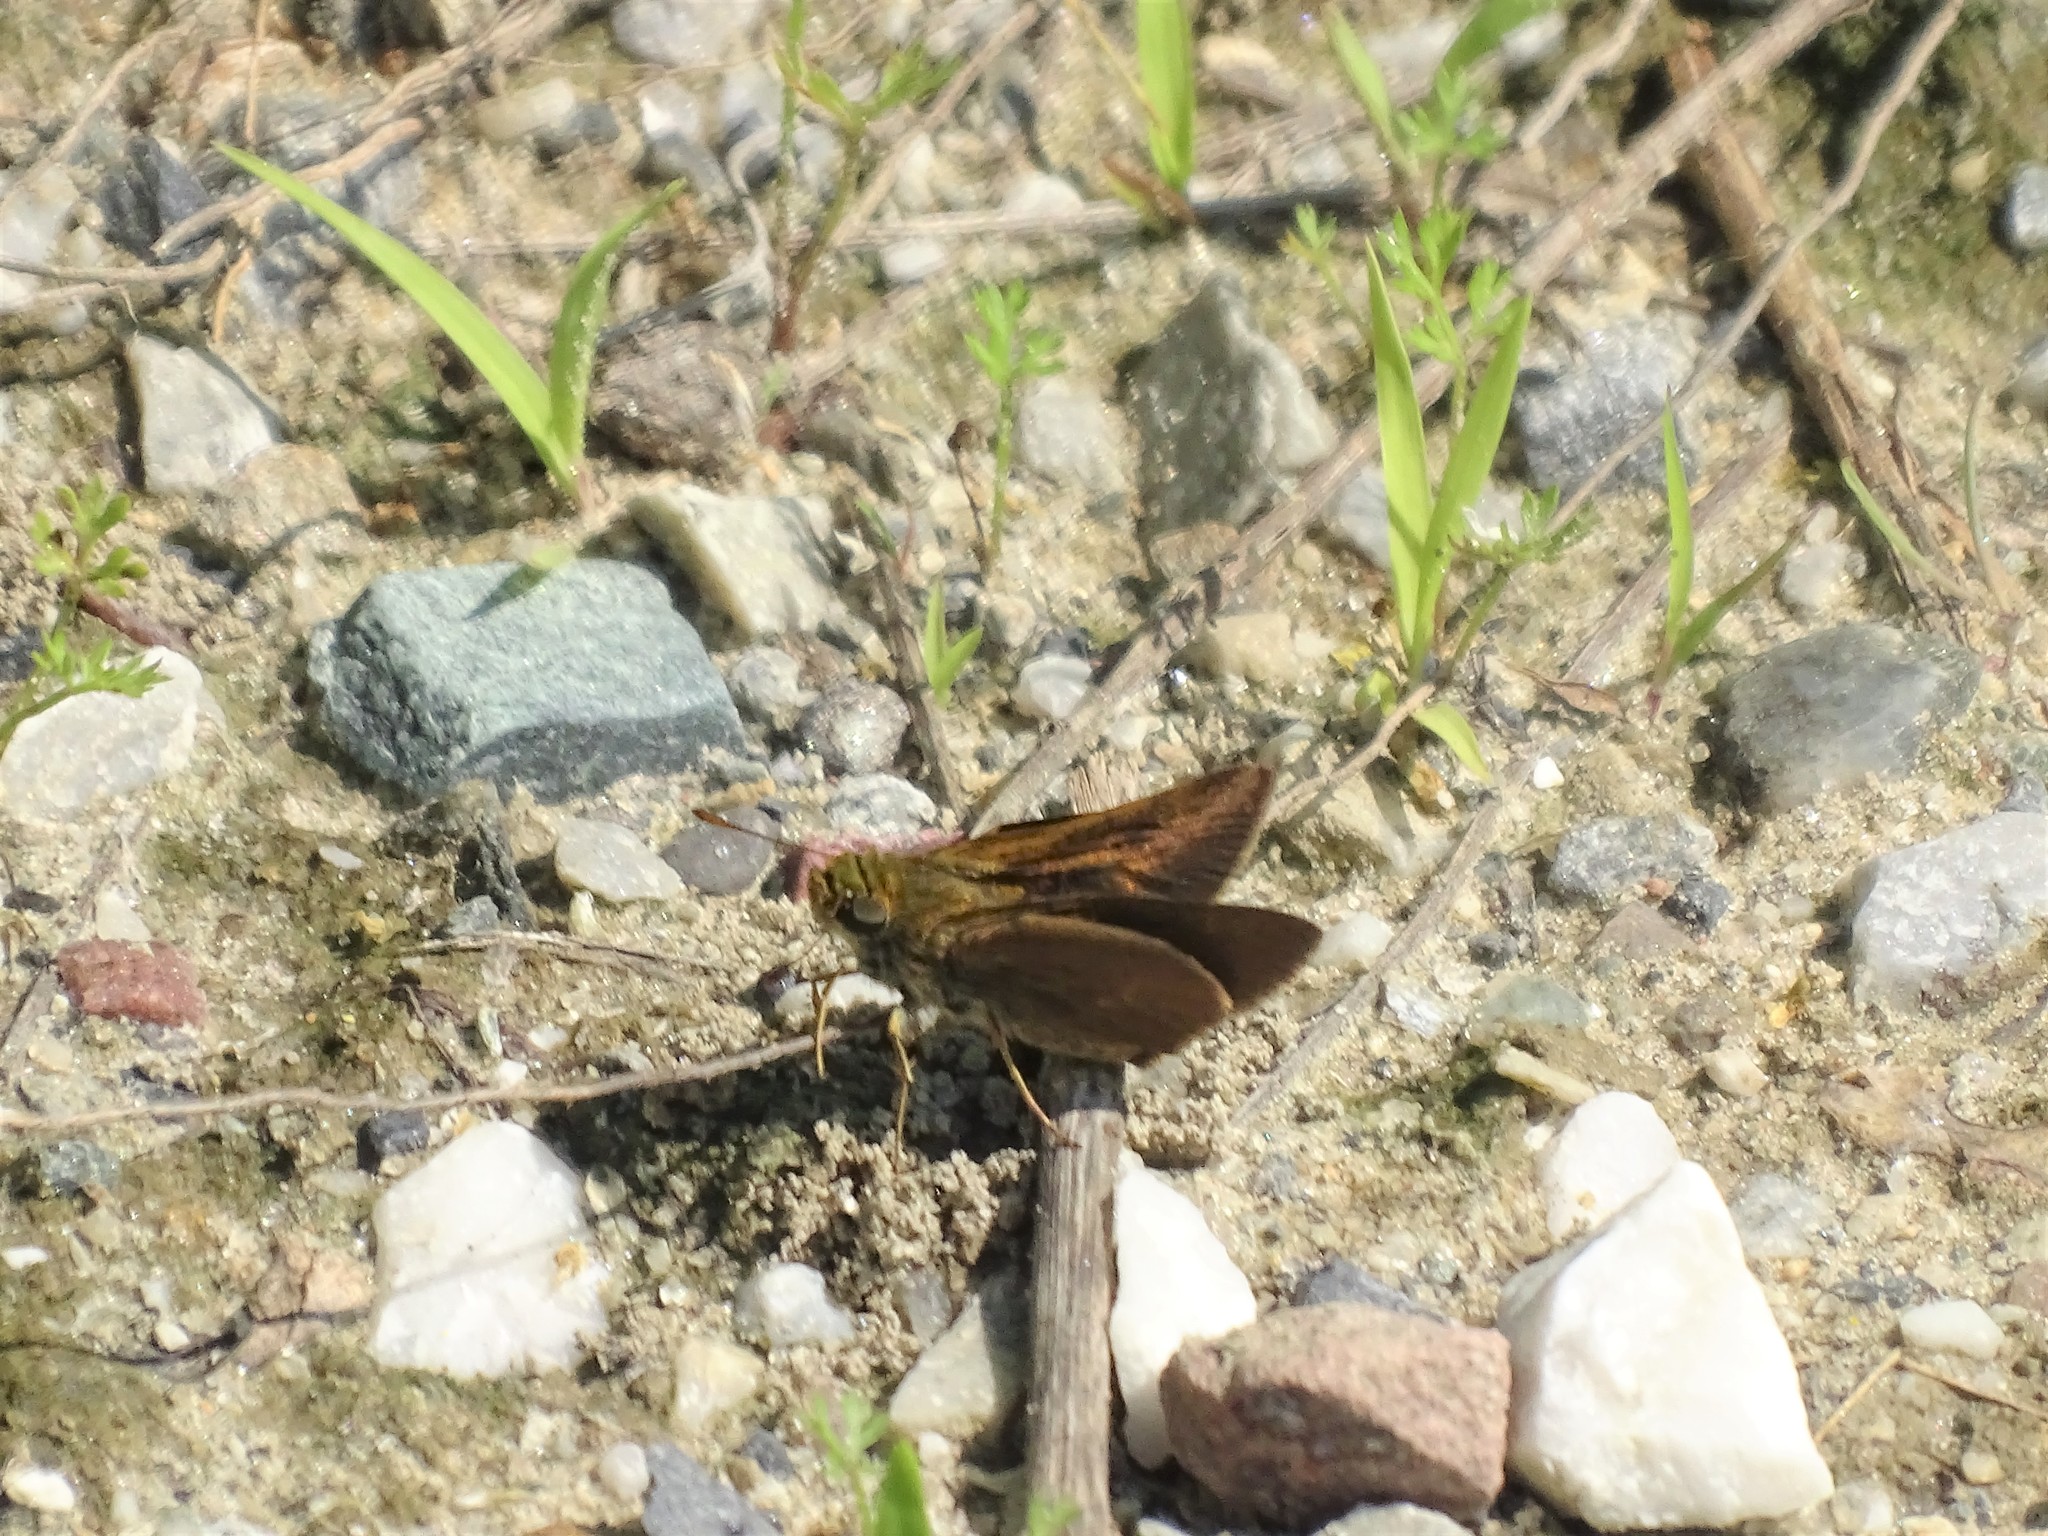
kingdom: Animalia
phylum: Arthropoda
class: Insecta
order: Lepidoptera
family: Hesperiidae
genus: Euphyes
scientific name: Euphyes vestris
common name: Dun skipper
